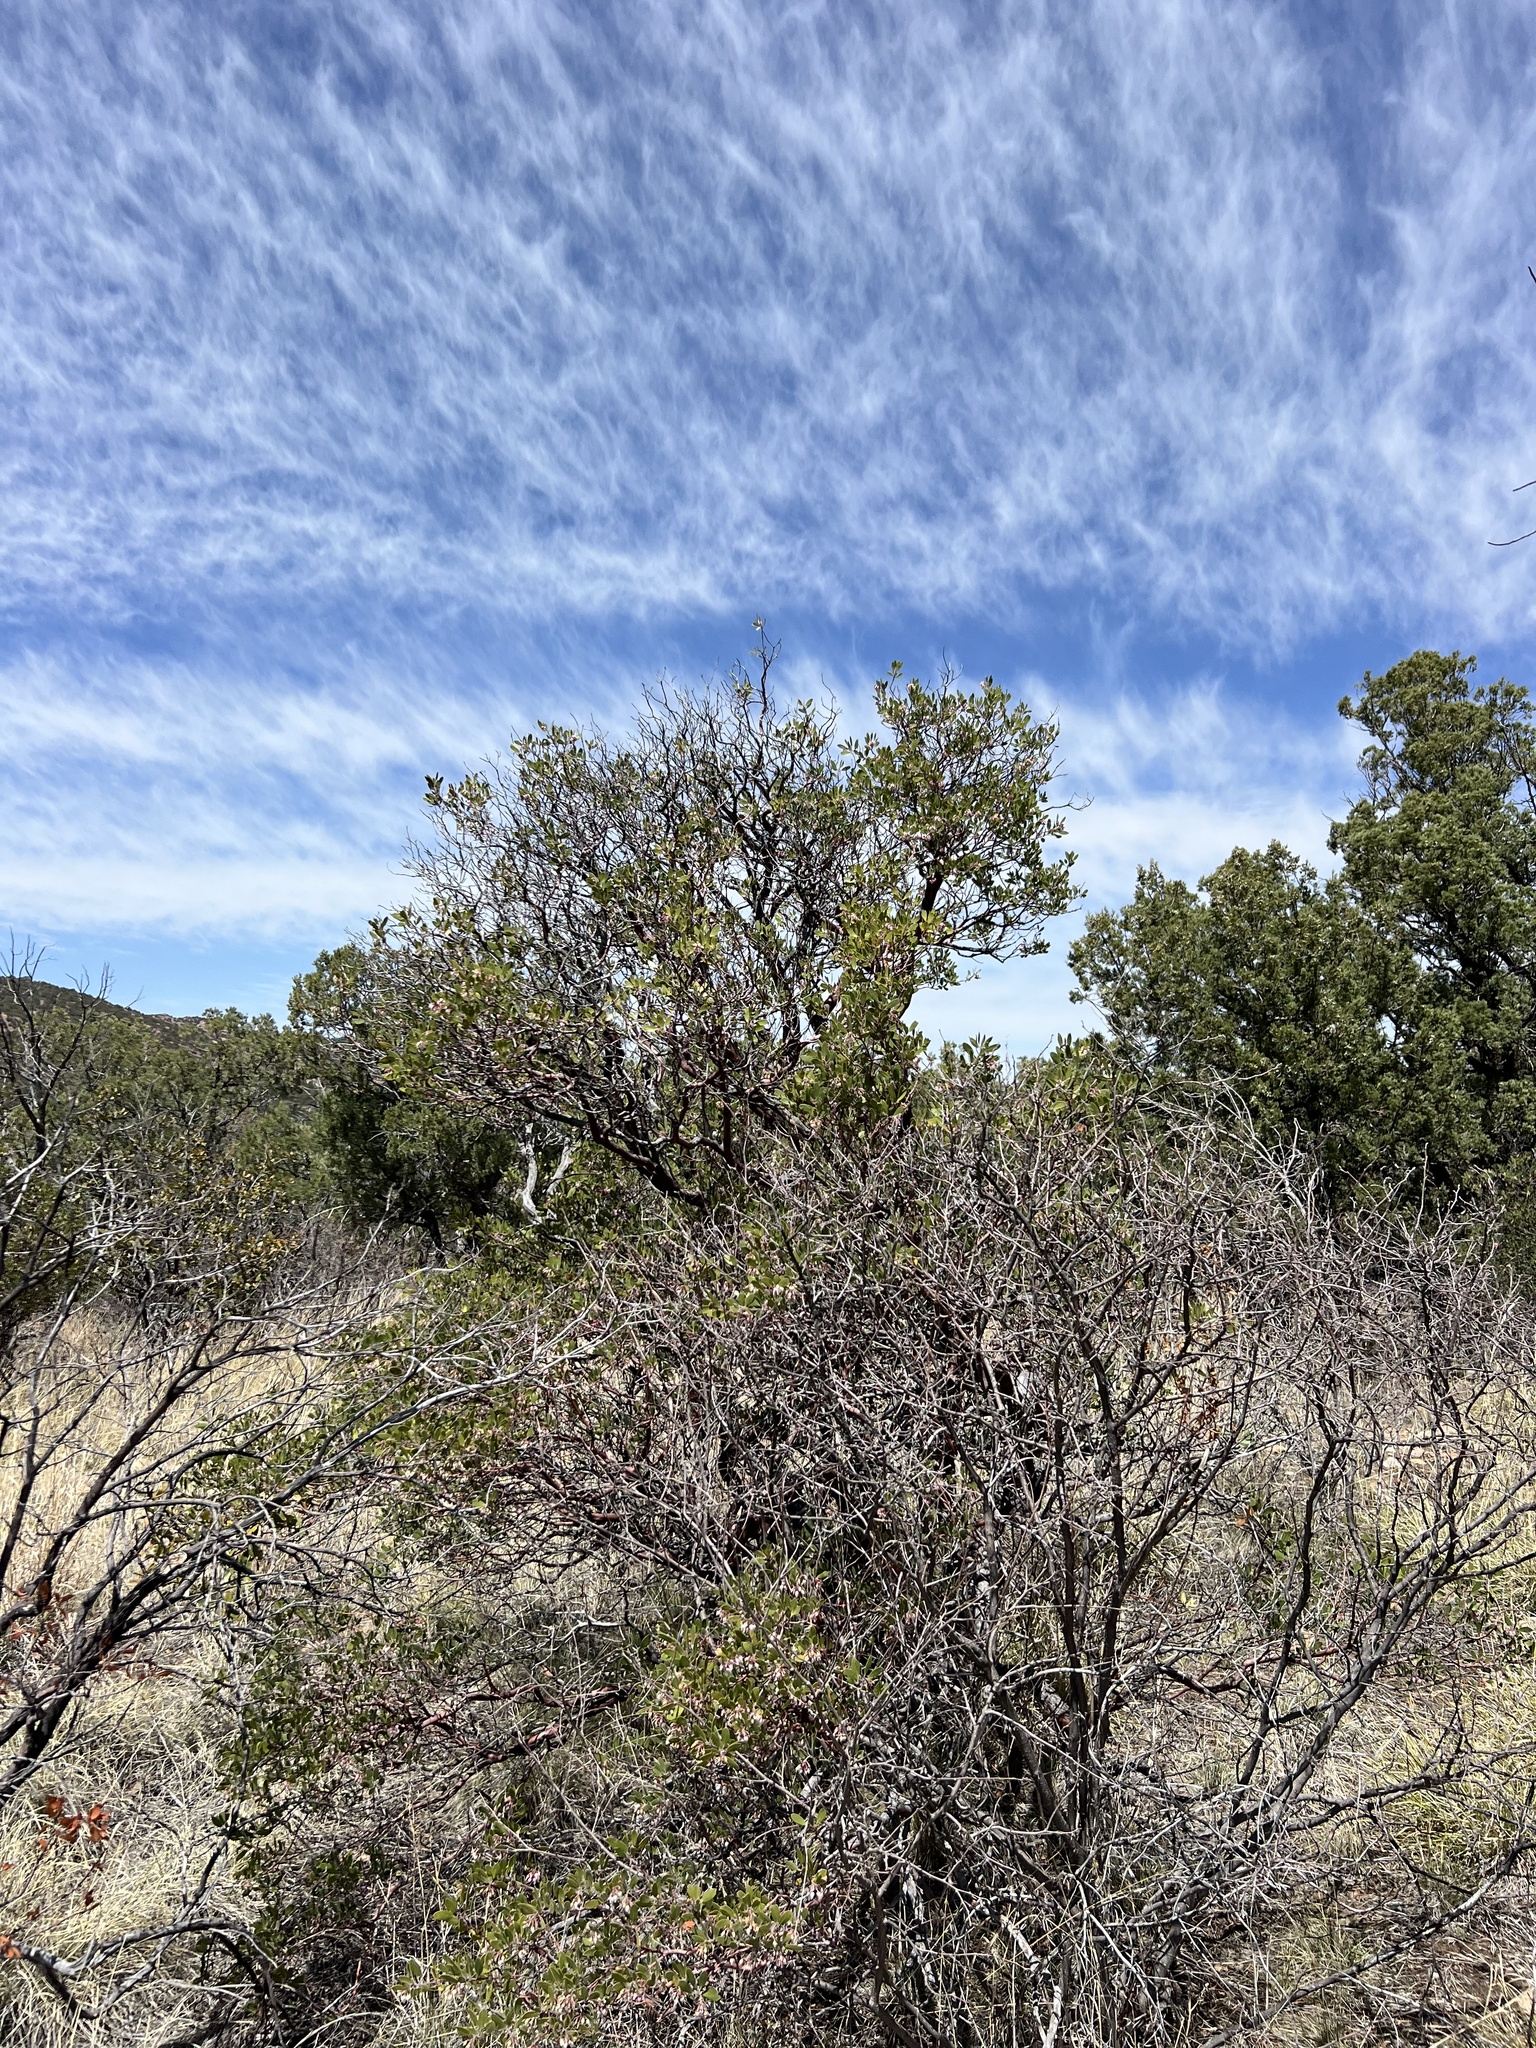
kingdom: Plantae
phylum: Tracheophyta
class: Magnoliopsida
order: Ericales
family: Ericaceae
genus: Arctostaphylos
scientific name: Arctostaphylos pungens
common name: Mexican manzanita
